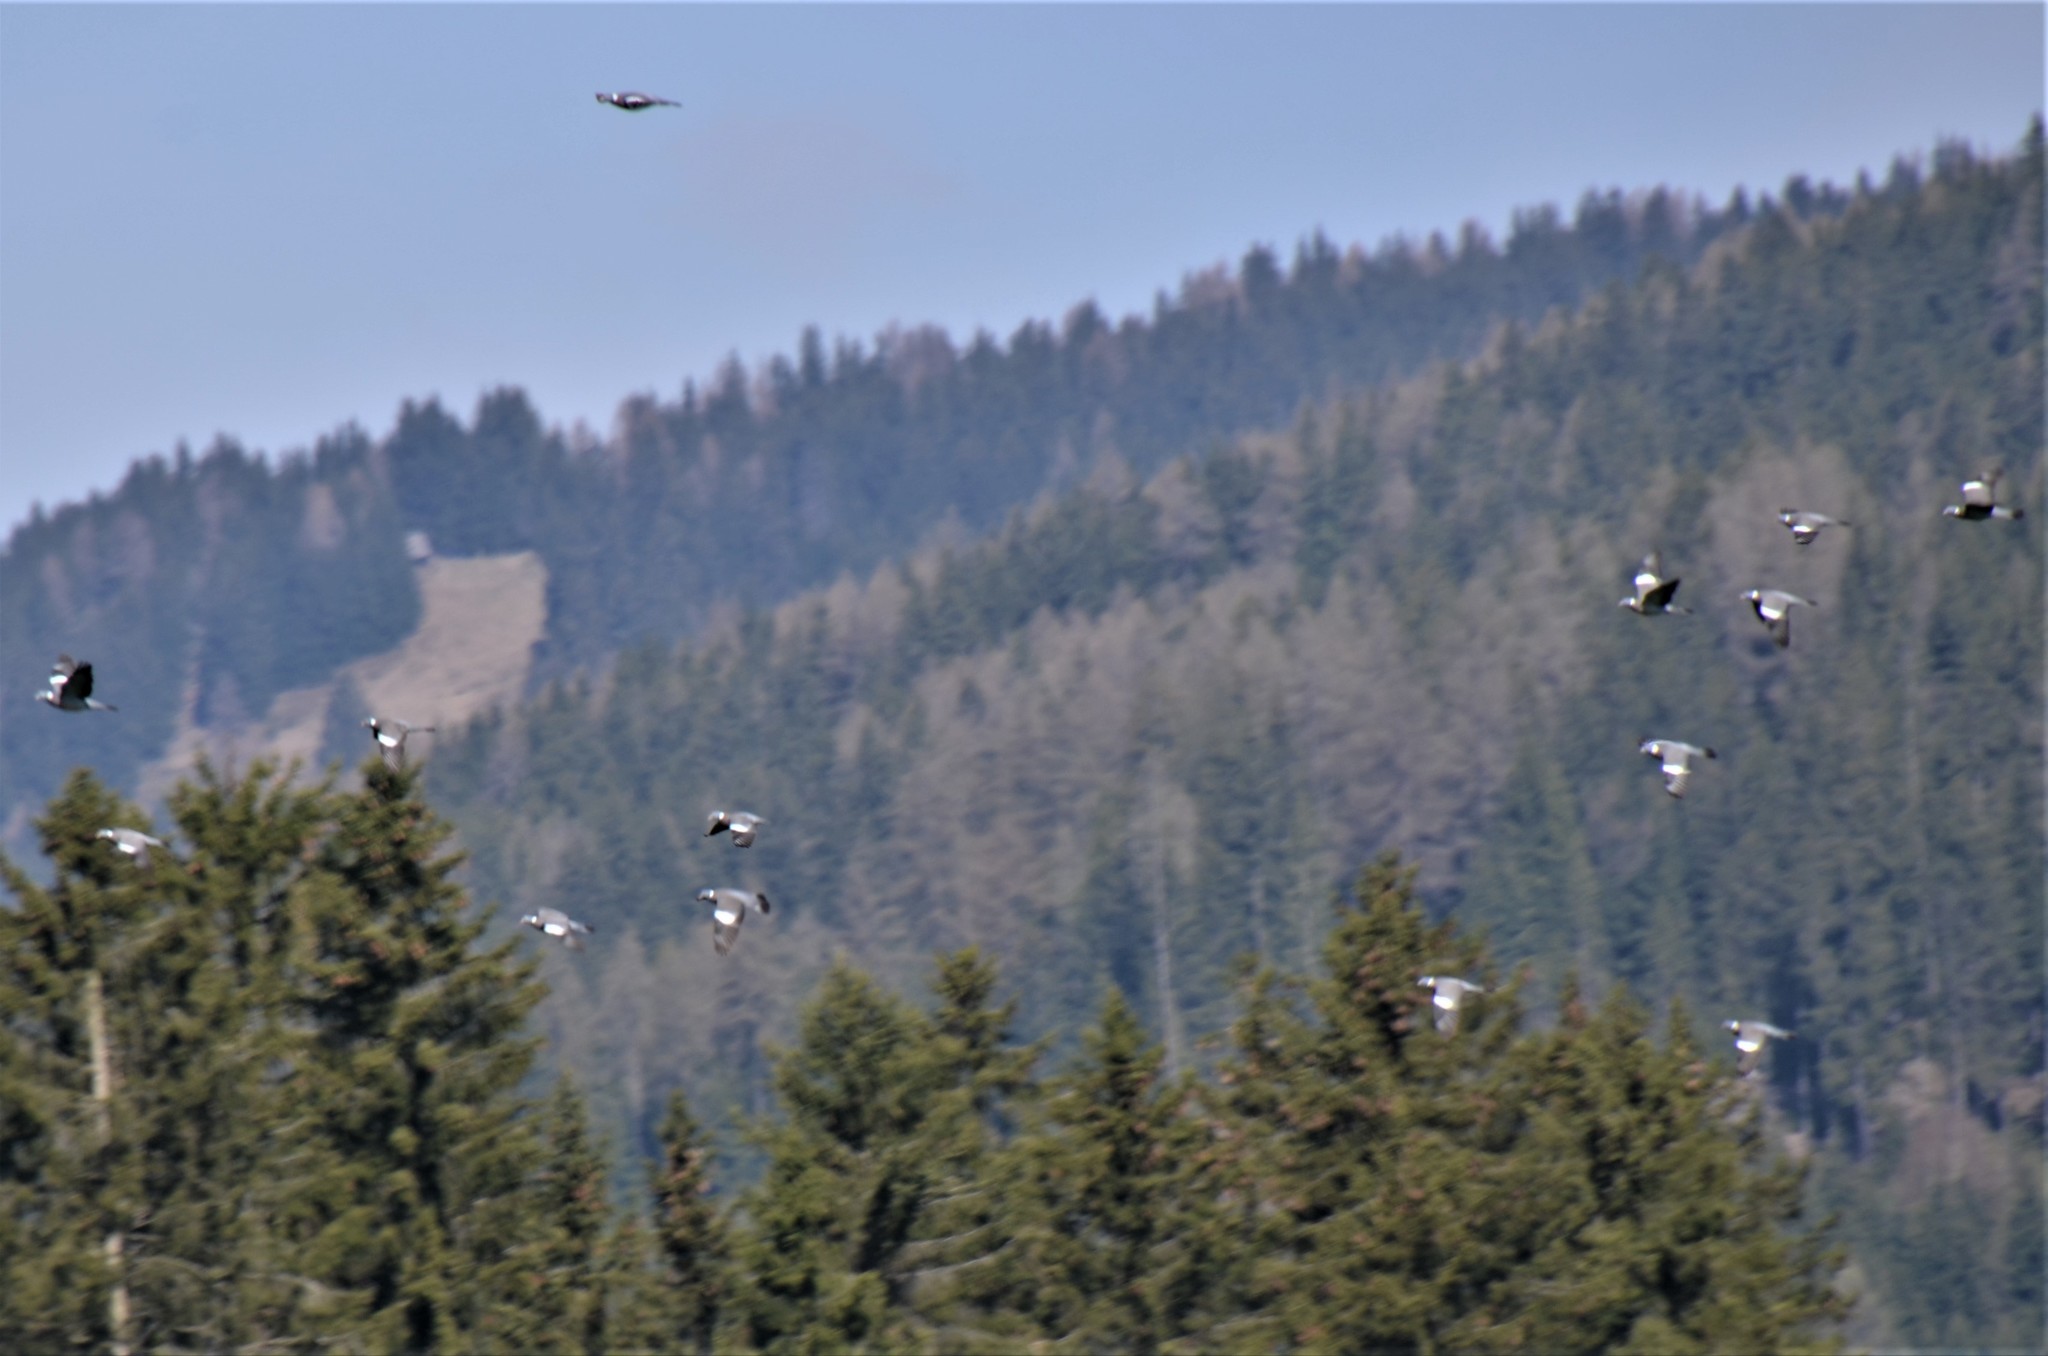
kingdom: Animalia
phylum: Chordata
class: Aves
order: Columbiformes
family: Columbidae
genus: Columba
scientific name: Columba palumbus
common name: Common wood pigeon
